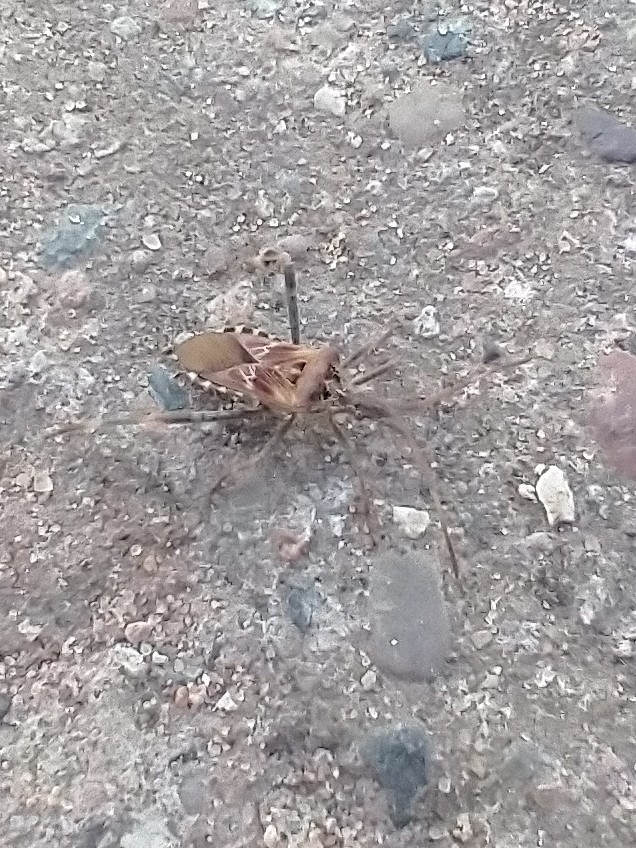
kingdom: Animalia
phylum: Arthropoda
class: Insecta
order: Hemiptera
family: Coreidae
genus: Leptoglossus
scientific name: Leptoglossus occidentalis
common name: Western conifer-seed bug
